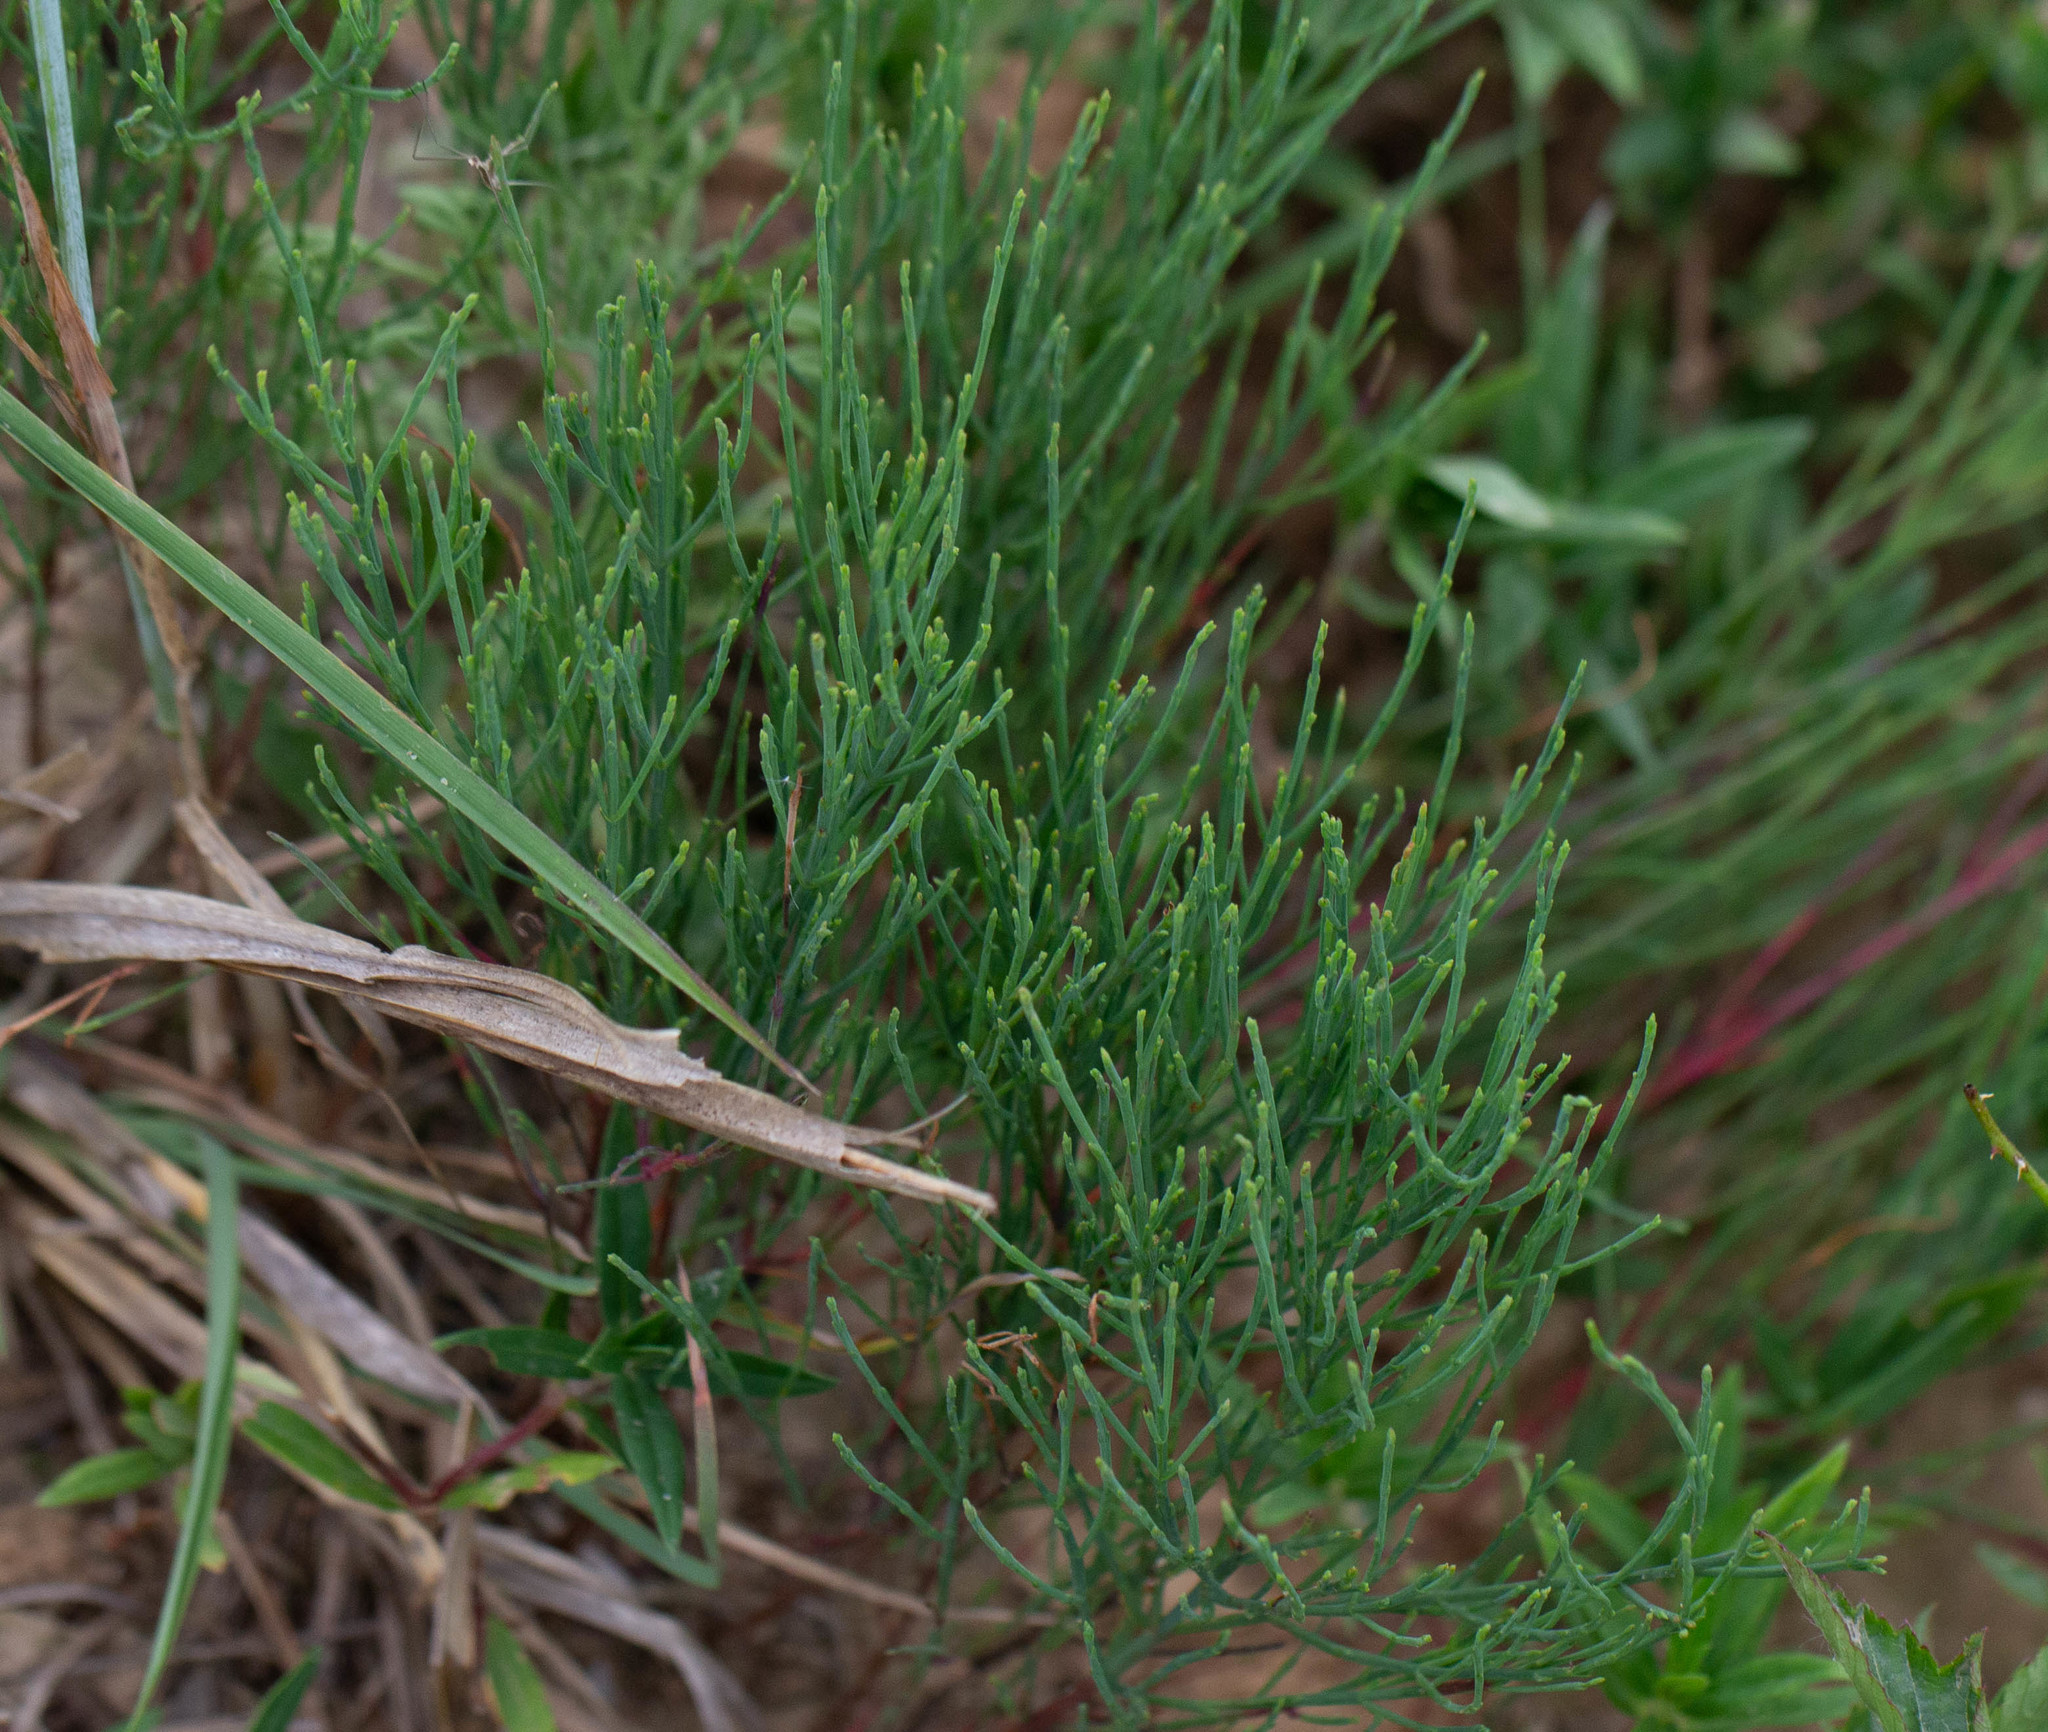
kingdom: Plantae
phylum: Tracheophyta
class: Magnoliopsida
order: Malpighiales
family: Hypericaceae
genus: Hypericum
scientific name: Hypericum gentianoides
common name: Gentian-leaved st. john's-wort
